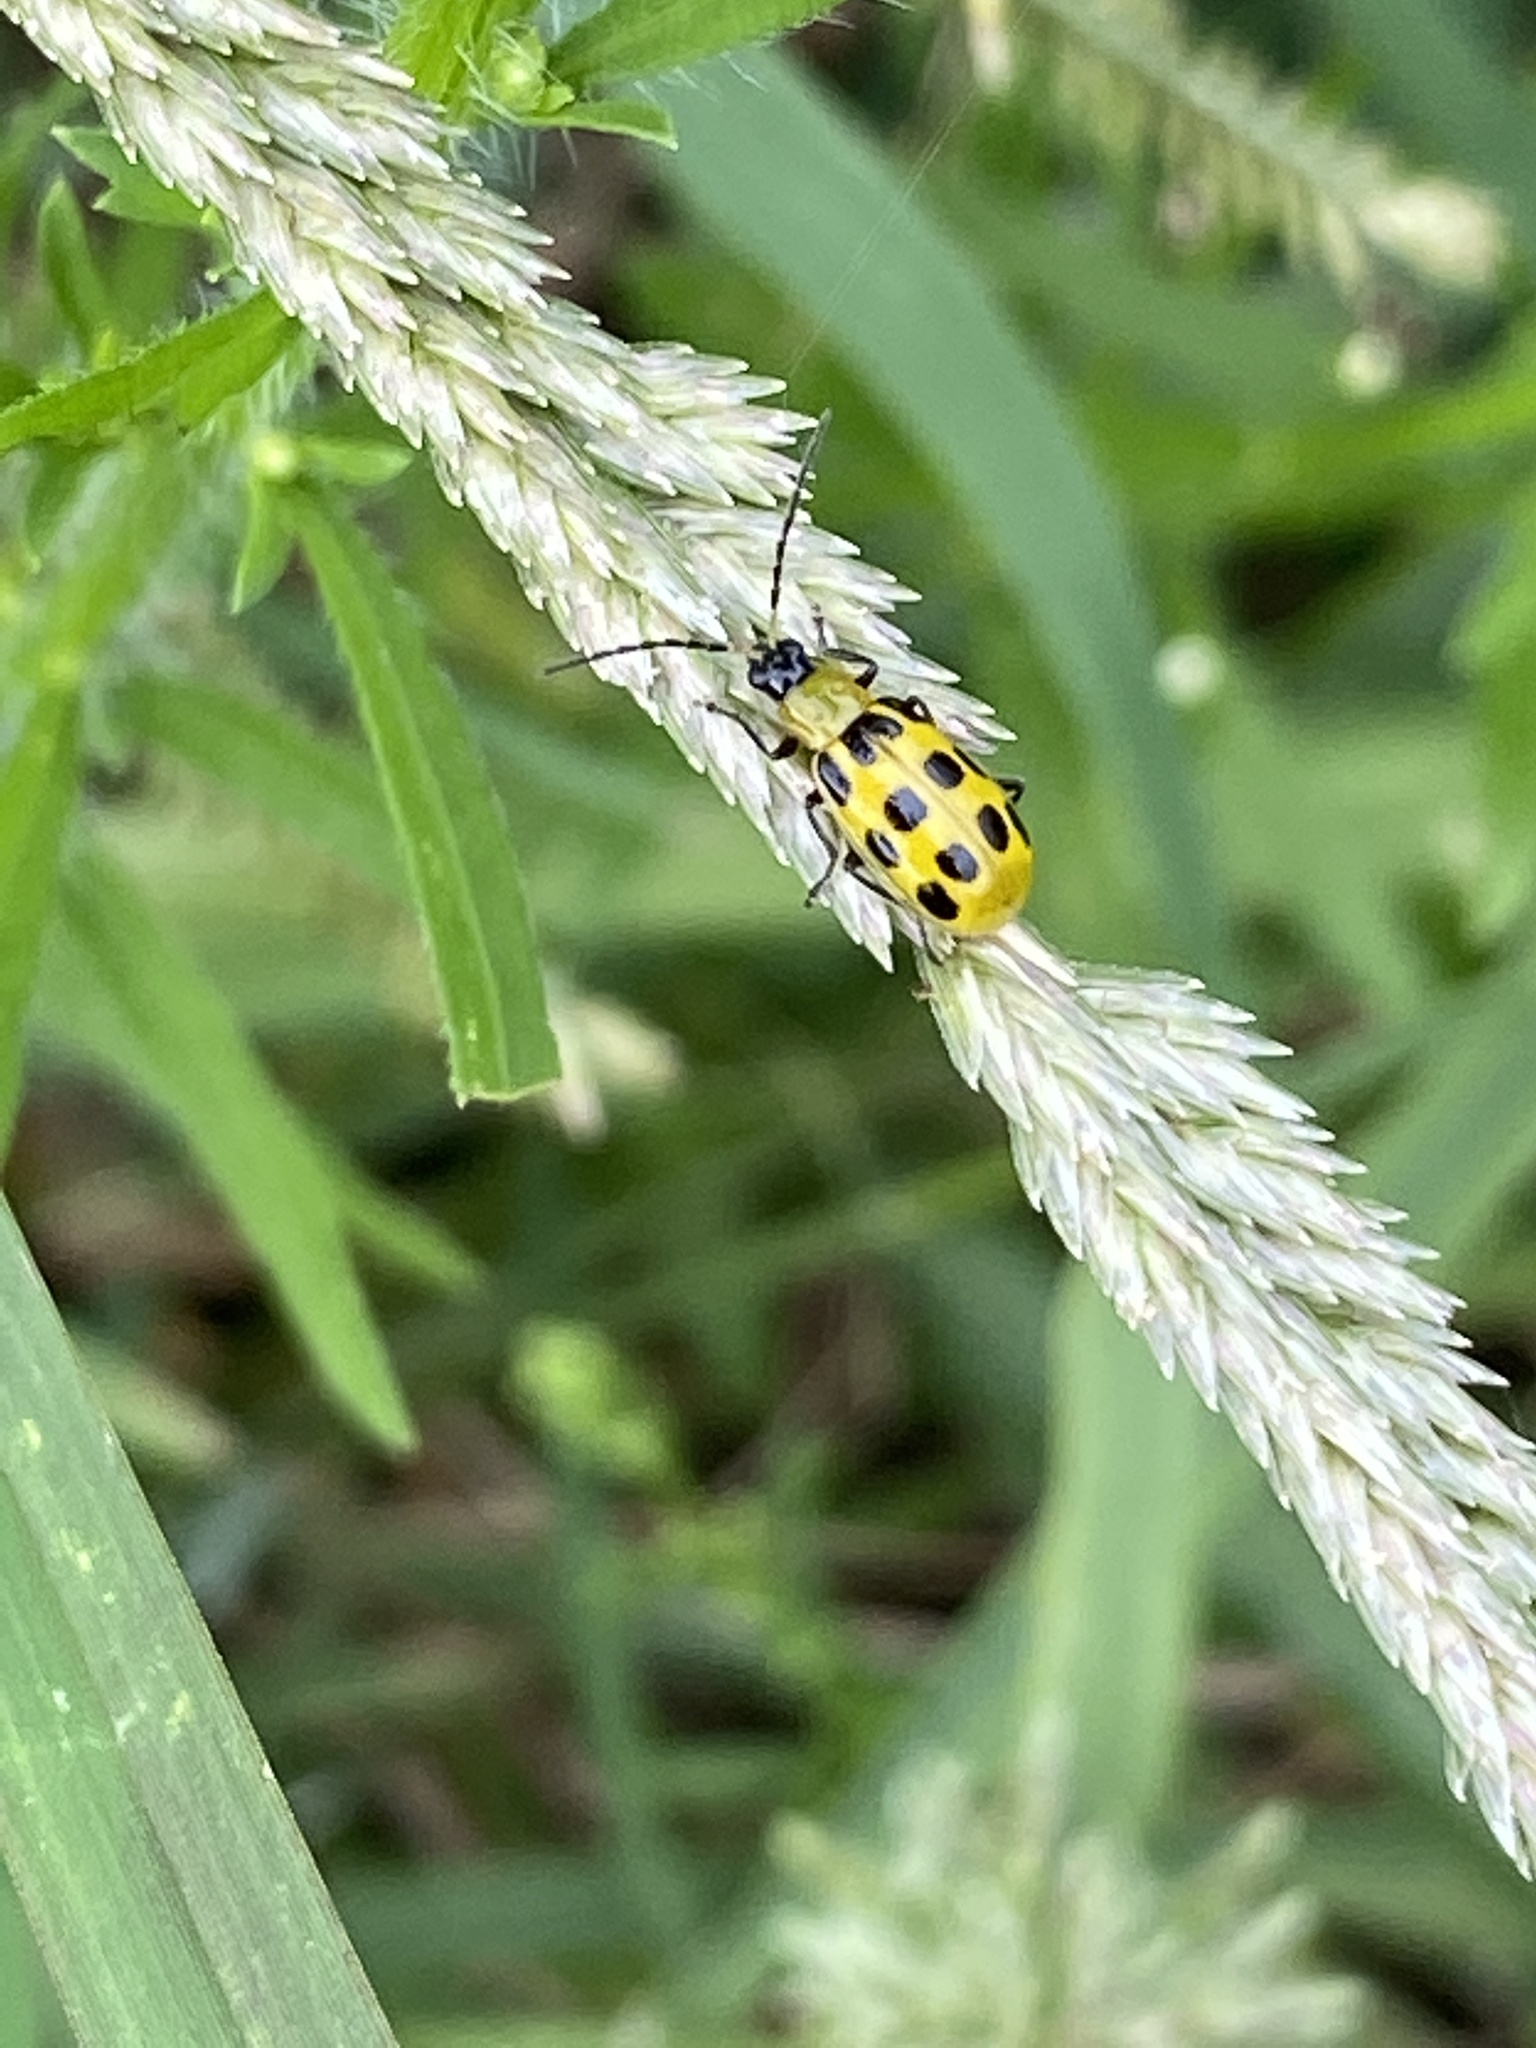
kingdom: Animalia
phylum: Arthropoda
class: Insecta
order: Coleoptera
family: Chrysomelidae
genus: Diabrotica
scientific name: Diabrotica undecimpunctata
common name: Spotted cucumber beetle
